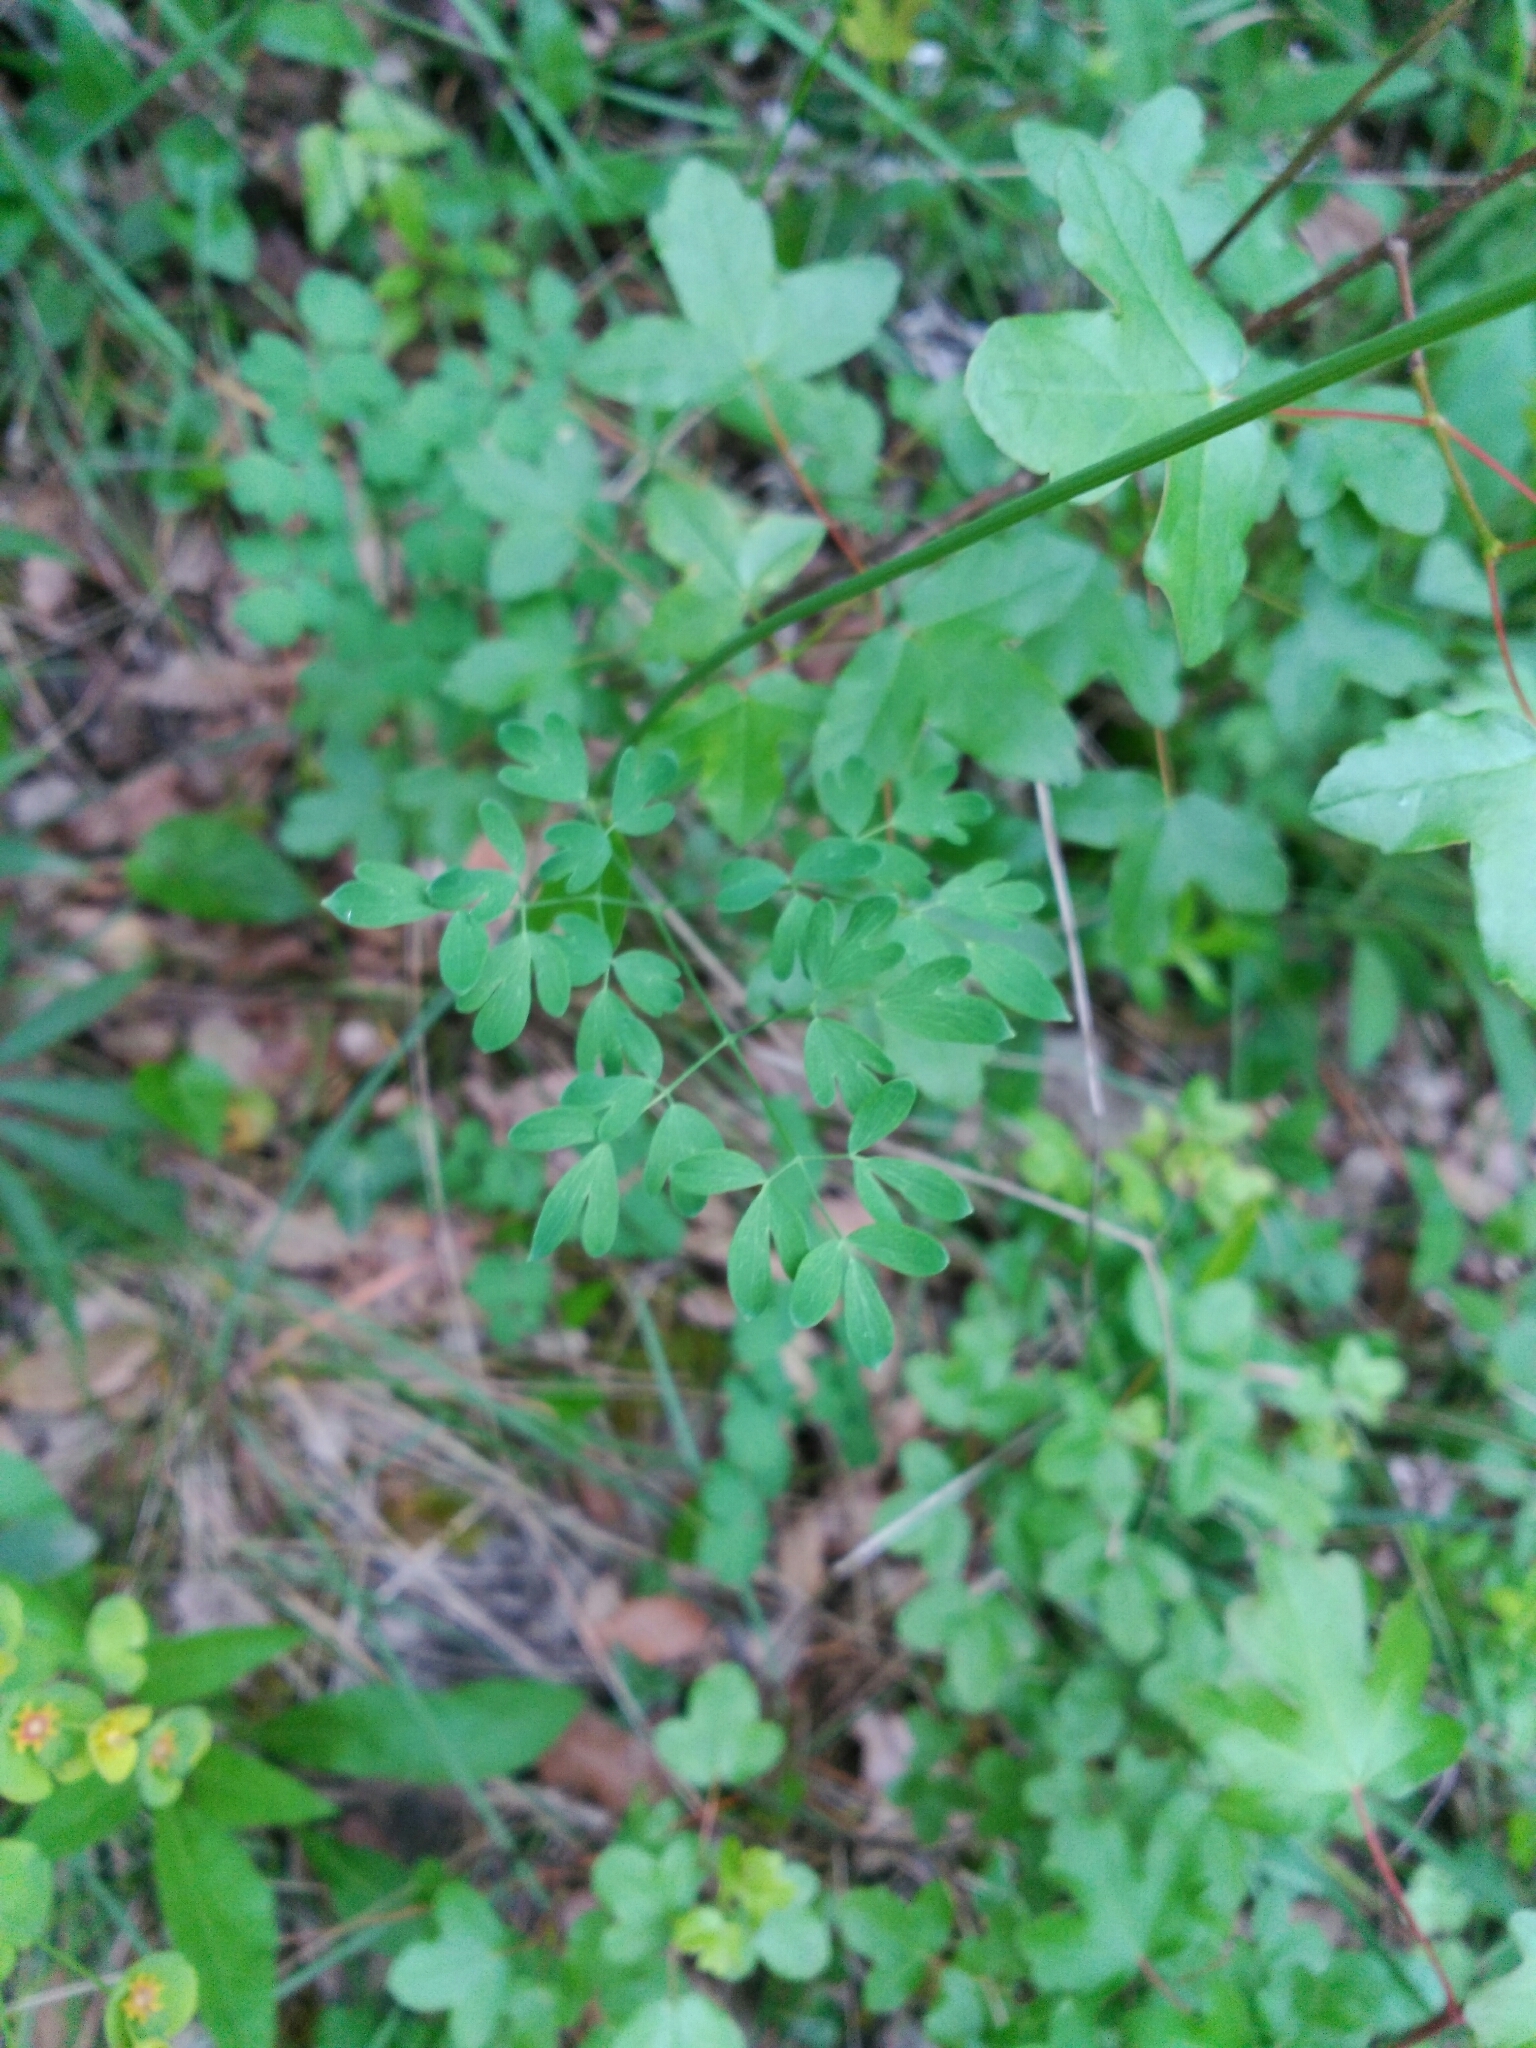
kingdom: Plantae
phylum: Tracheophyta
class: Magnoliopsida
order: Sapindales
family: Sapindaceae
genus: Acer
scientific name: Acer monspessulanum
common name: Montpellier maple
